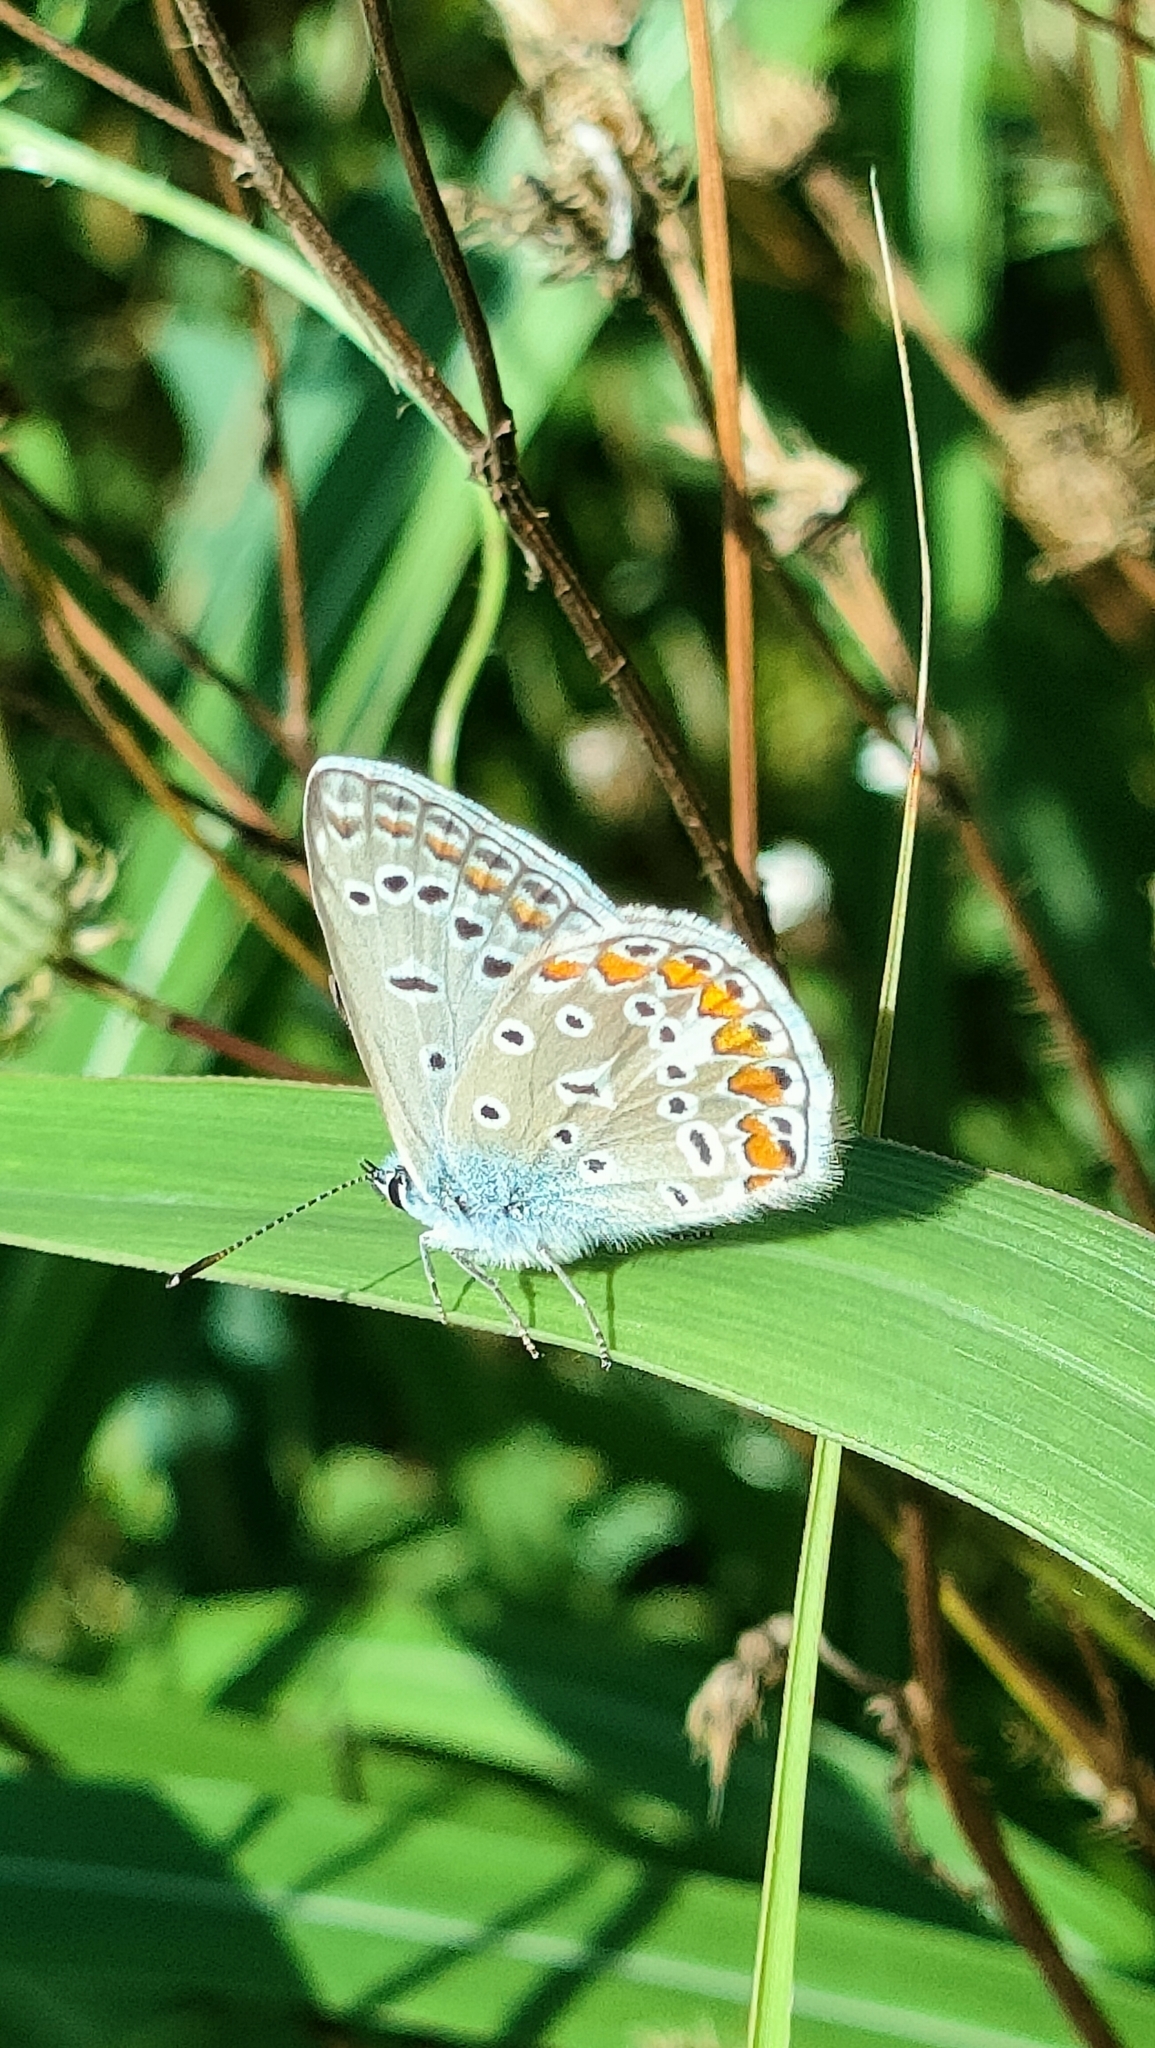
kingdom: Animalia
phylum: Arthropoda
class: Insecta
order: Lepidoptera
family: Lycaenidae
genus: Polyommatus
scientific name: Polyommatus icarus
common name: Common blue
